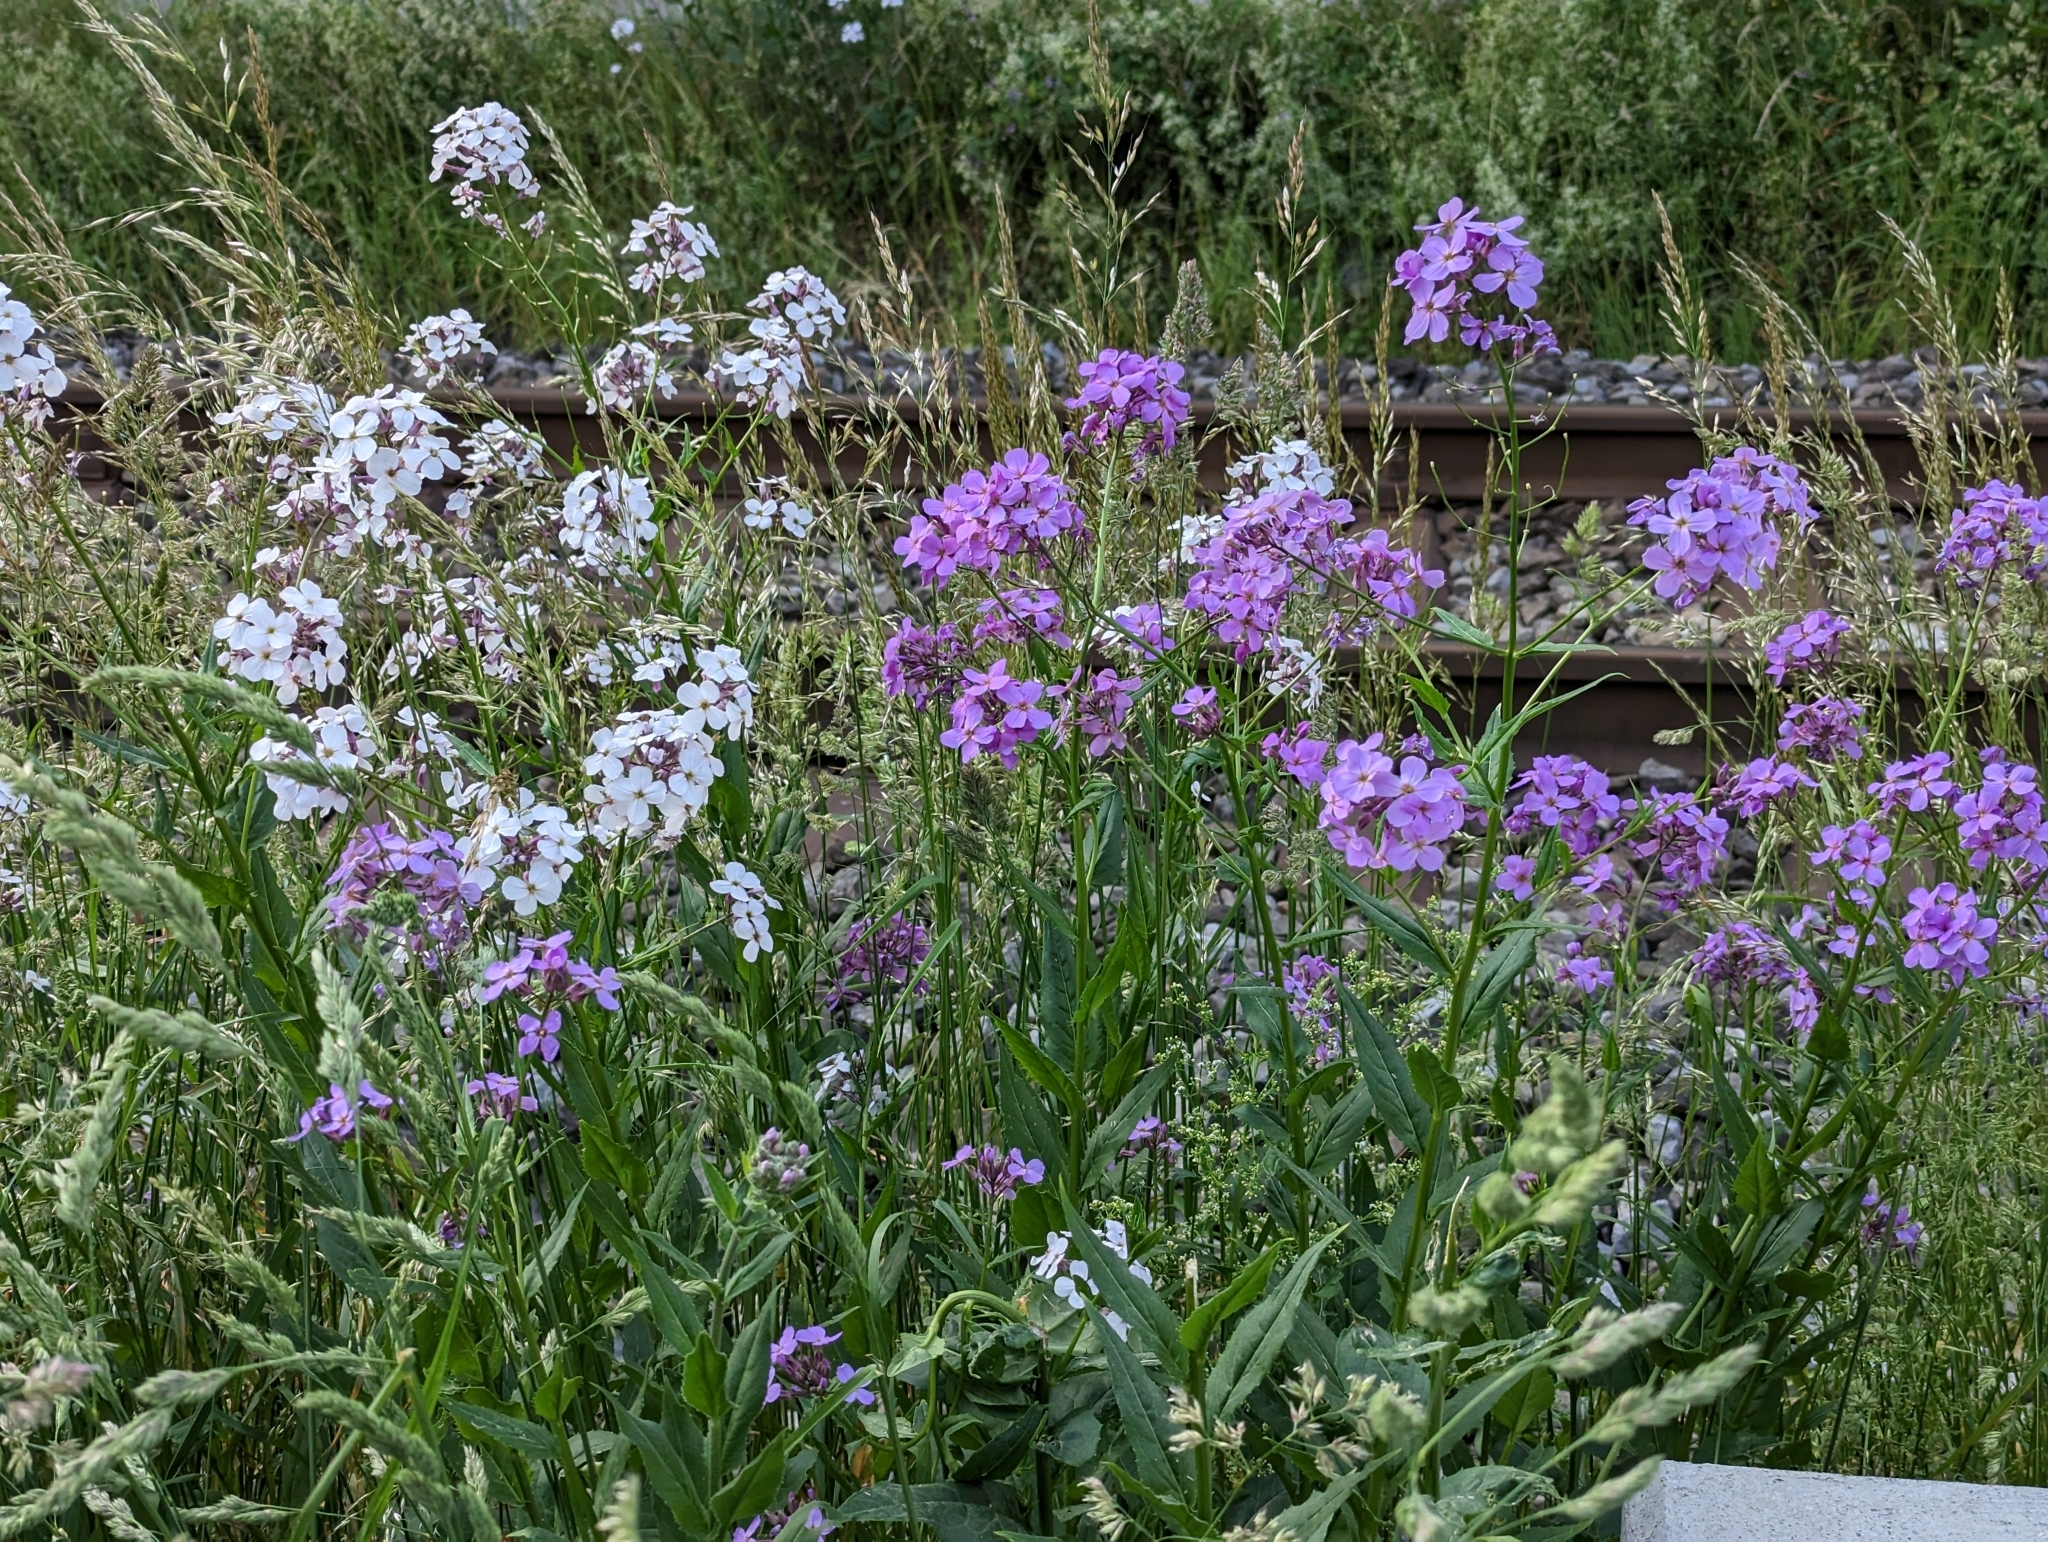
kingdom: Plantae
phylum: Tracheophyta
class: Magnoliopsida
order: Brassicales
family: Brassicaceae
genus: Hesperis
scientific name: Hesperis matronalis
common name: Dame's-violet
